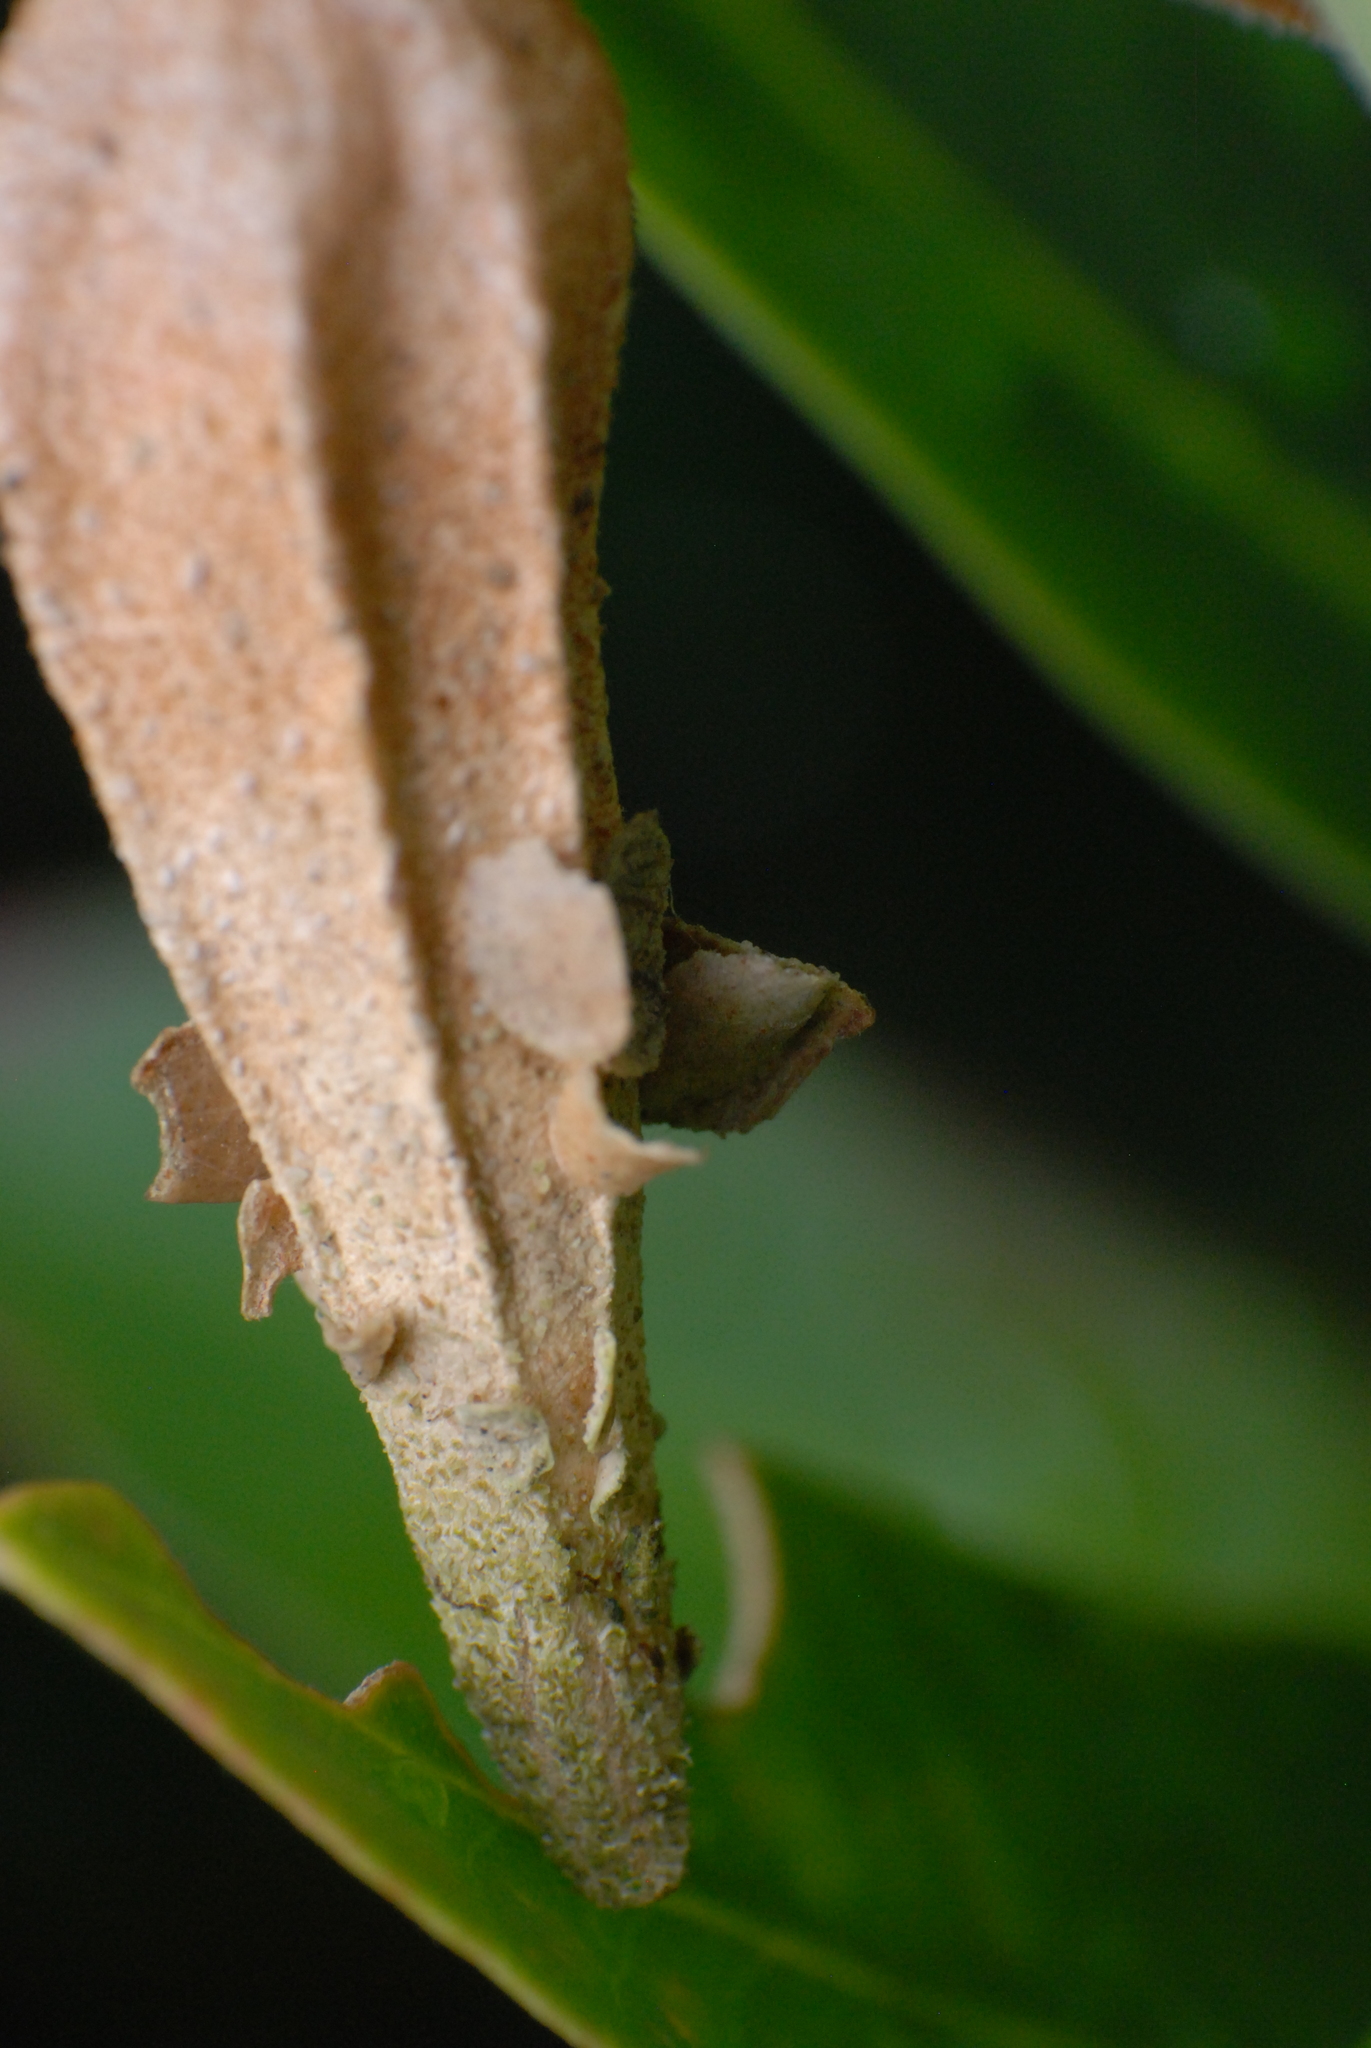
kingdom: Animalia
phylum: Arthropoda
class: Insecta
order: Lepidoptera
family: Psychidae
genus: Hyalarcta
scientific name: Hyalarcta nigrescens
